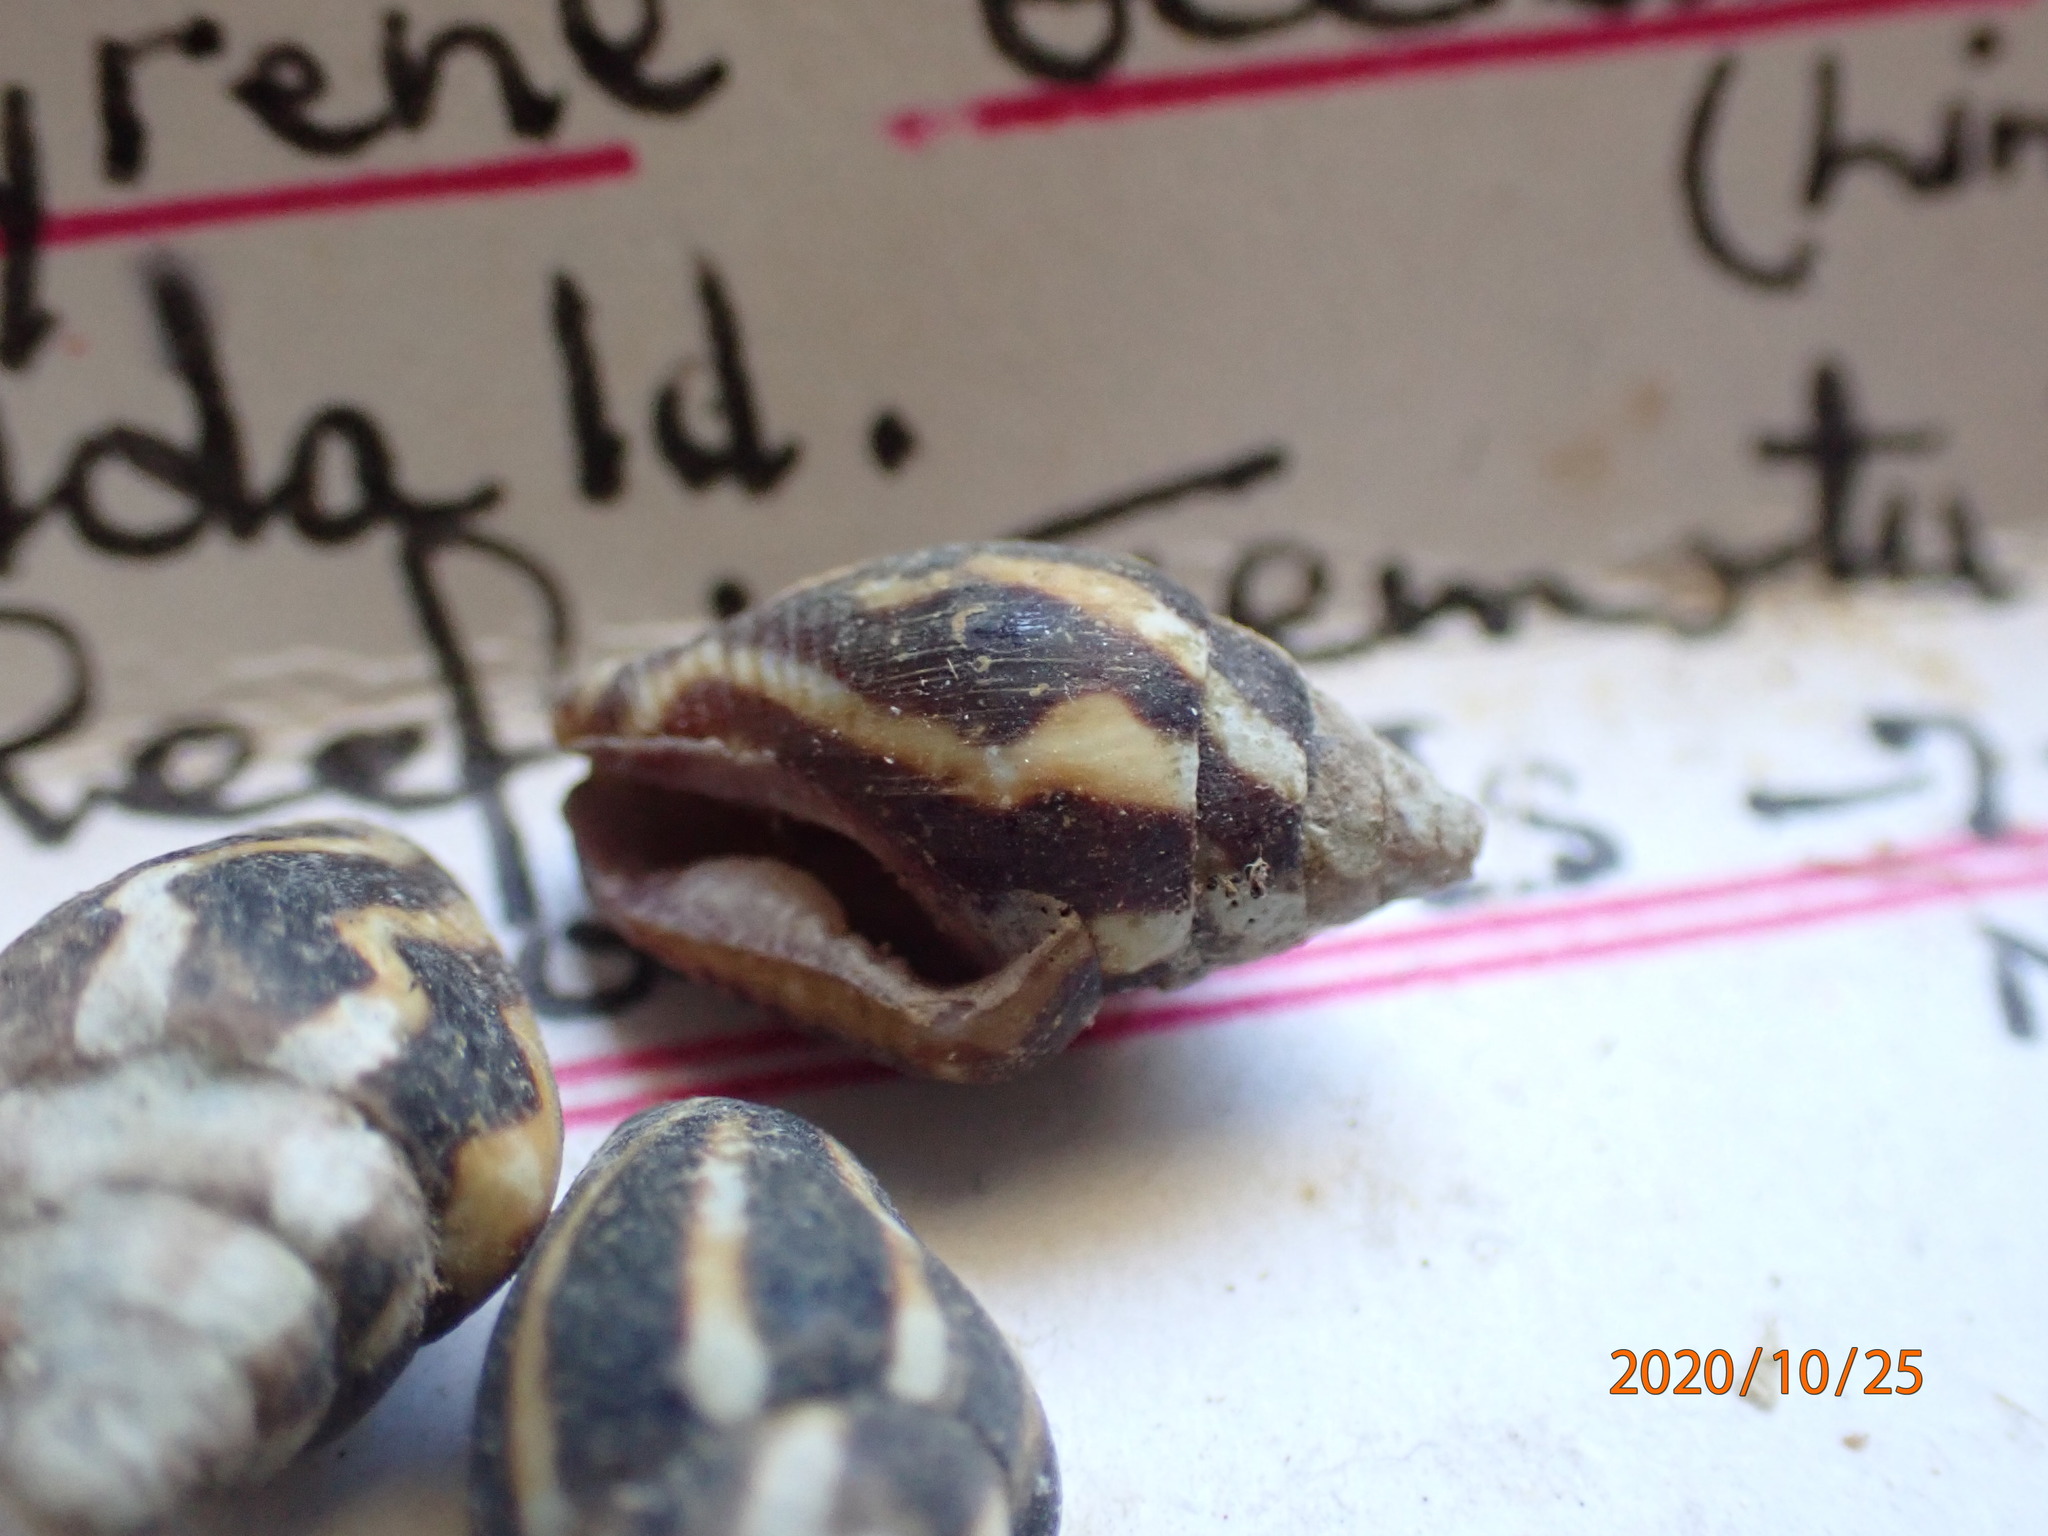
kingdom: Animalia
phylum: Mollusca
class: Gastropoda
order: Neogastropoda
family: Columbellidae
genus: Pictocolumbella
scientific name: Pictocolumbella ocellata
